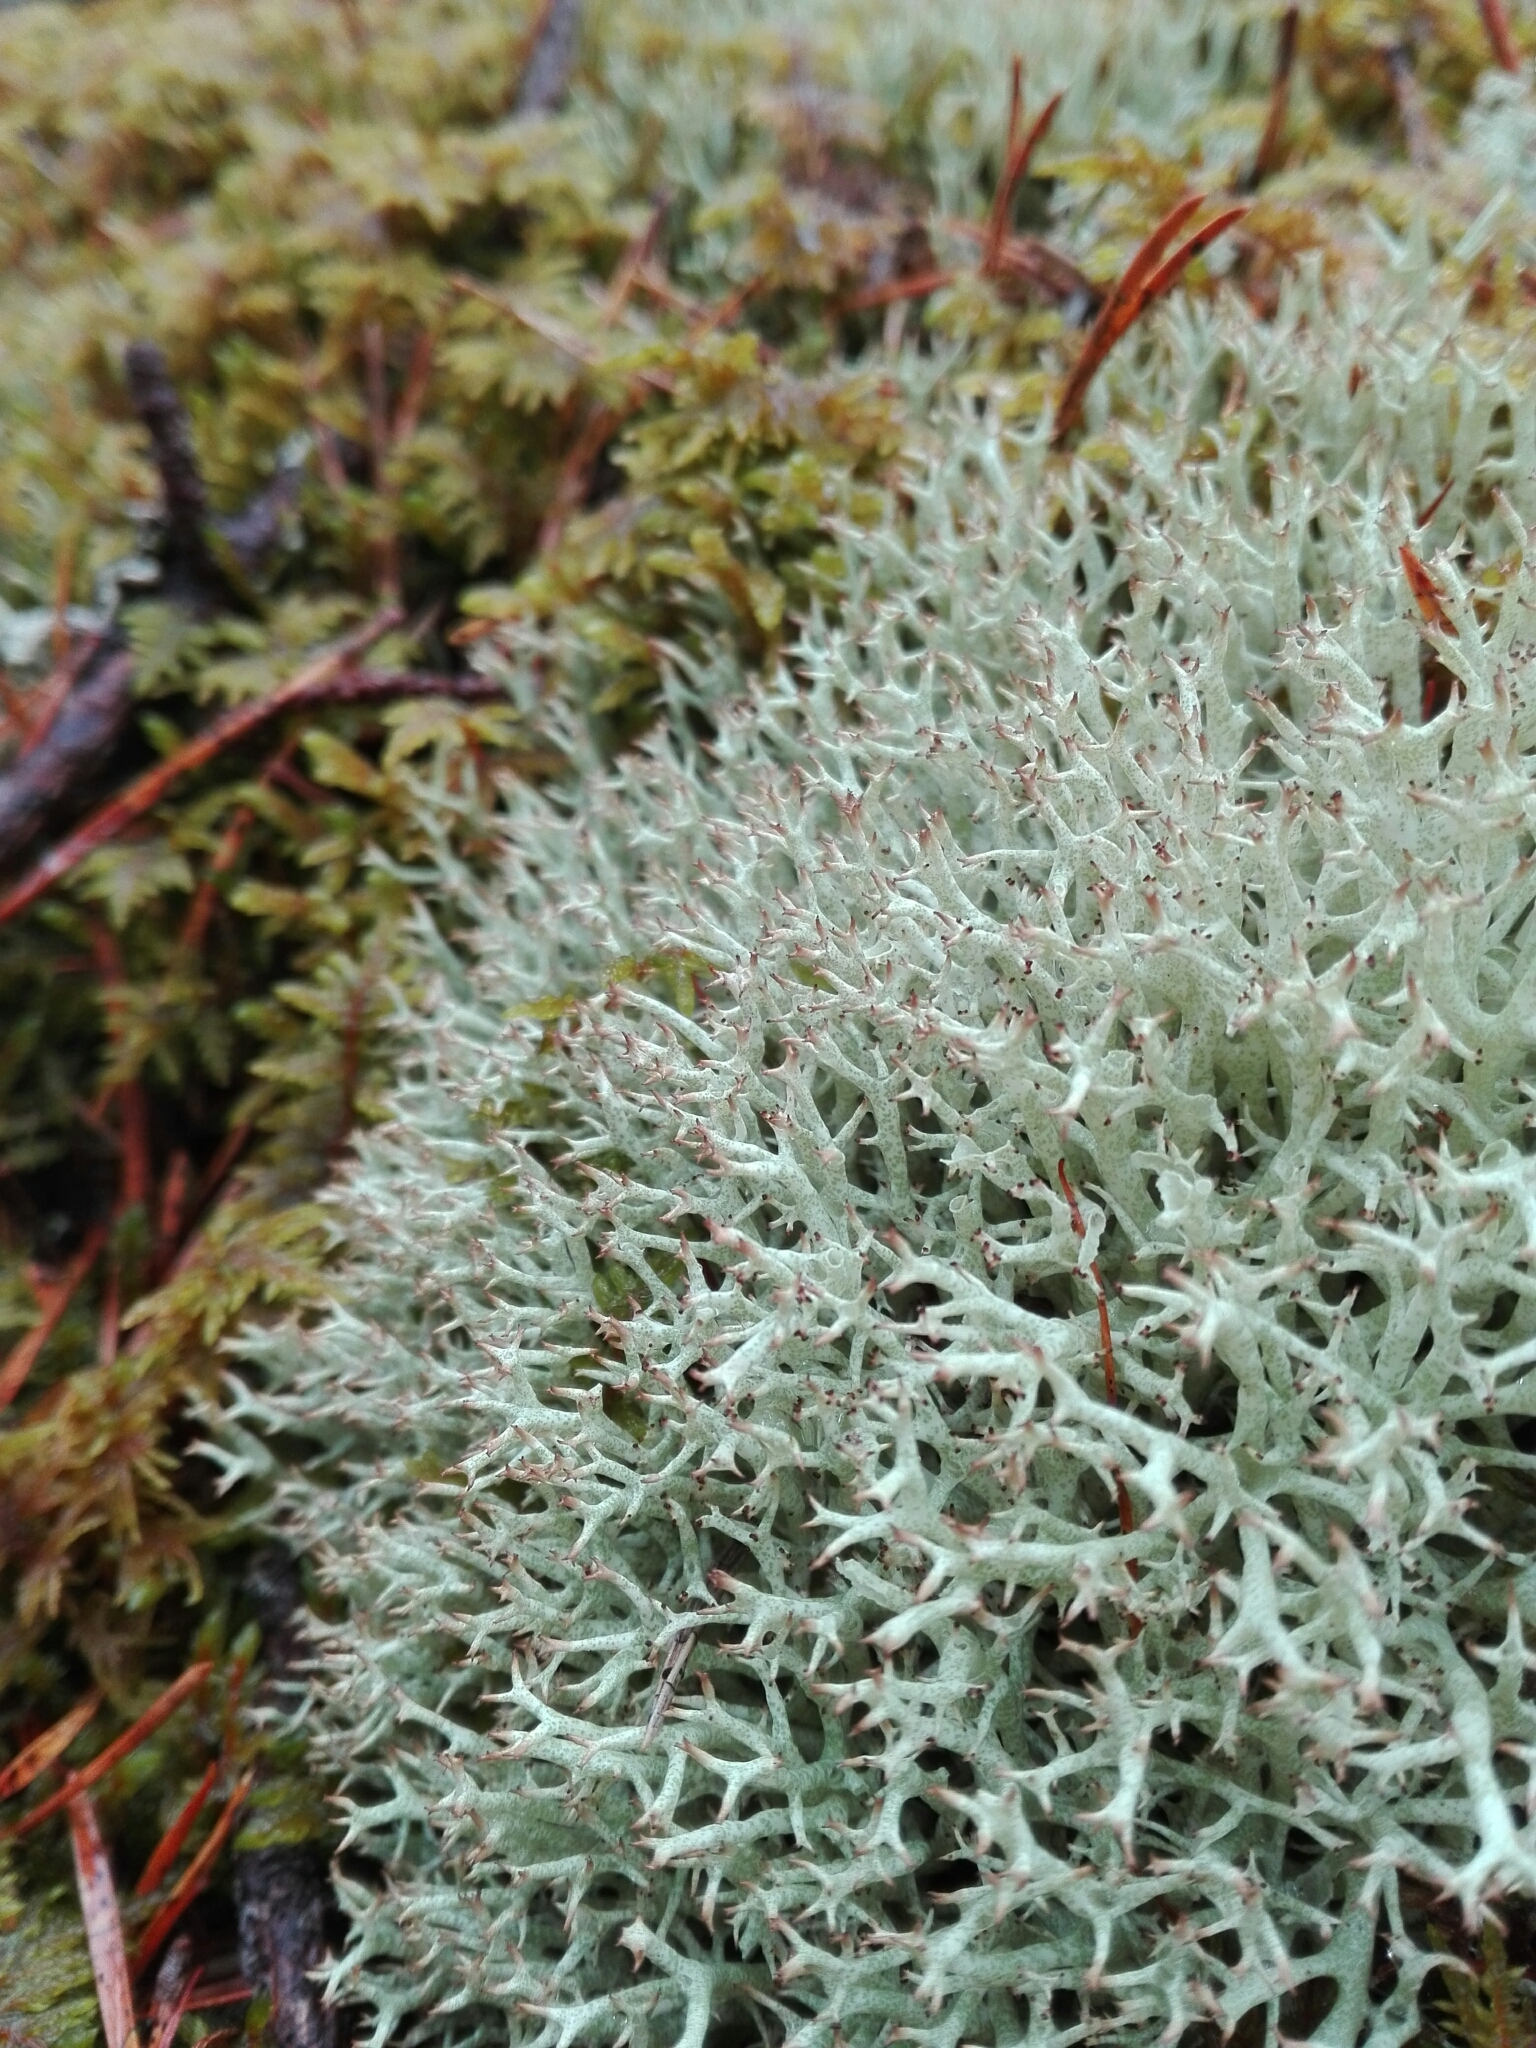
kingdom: Fungi
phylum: Ascomycota
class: Lecanoromycetes
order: Lecanorales
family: Cladoniaceae
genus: Cladonia
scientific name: Cladonia uncialis
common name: Thorn lichen
